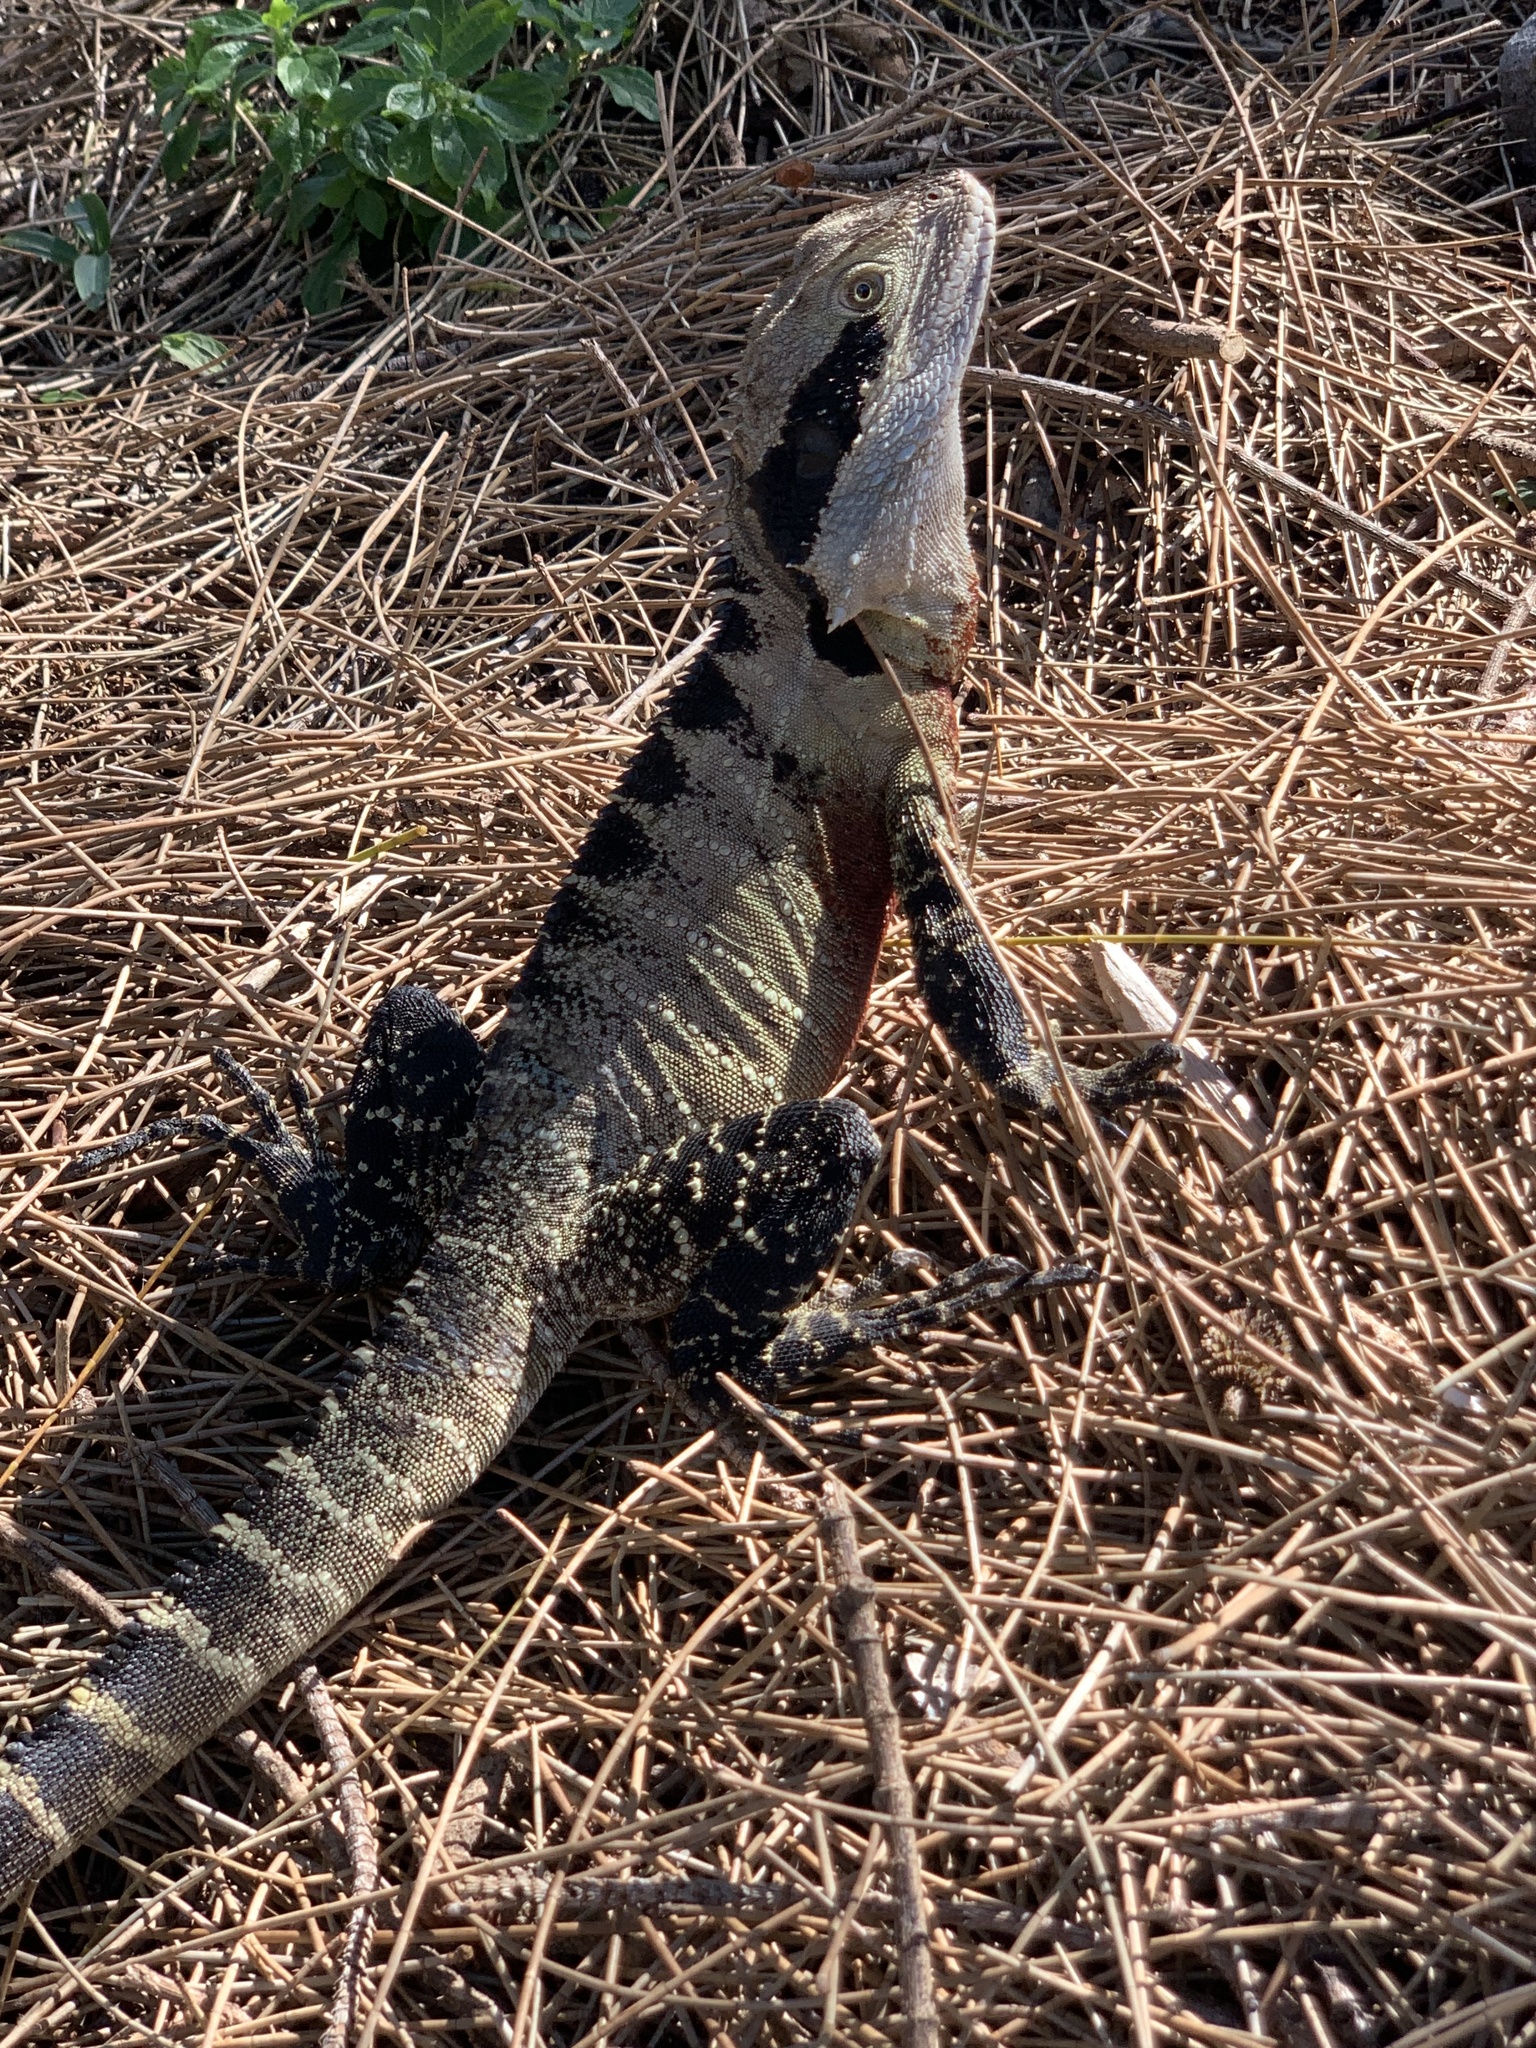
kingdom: Animalia
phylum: Chordata
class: Squamata
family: Agamidae
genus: Intellagama
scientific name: Intellagama lesueurii
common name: Eastern water dragon
